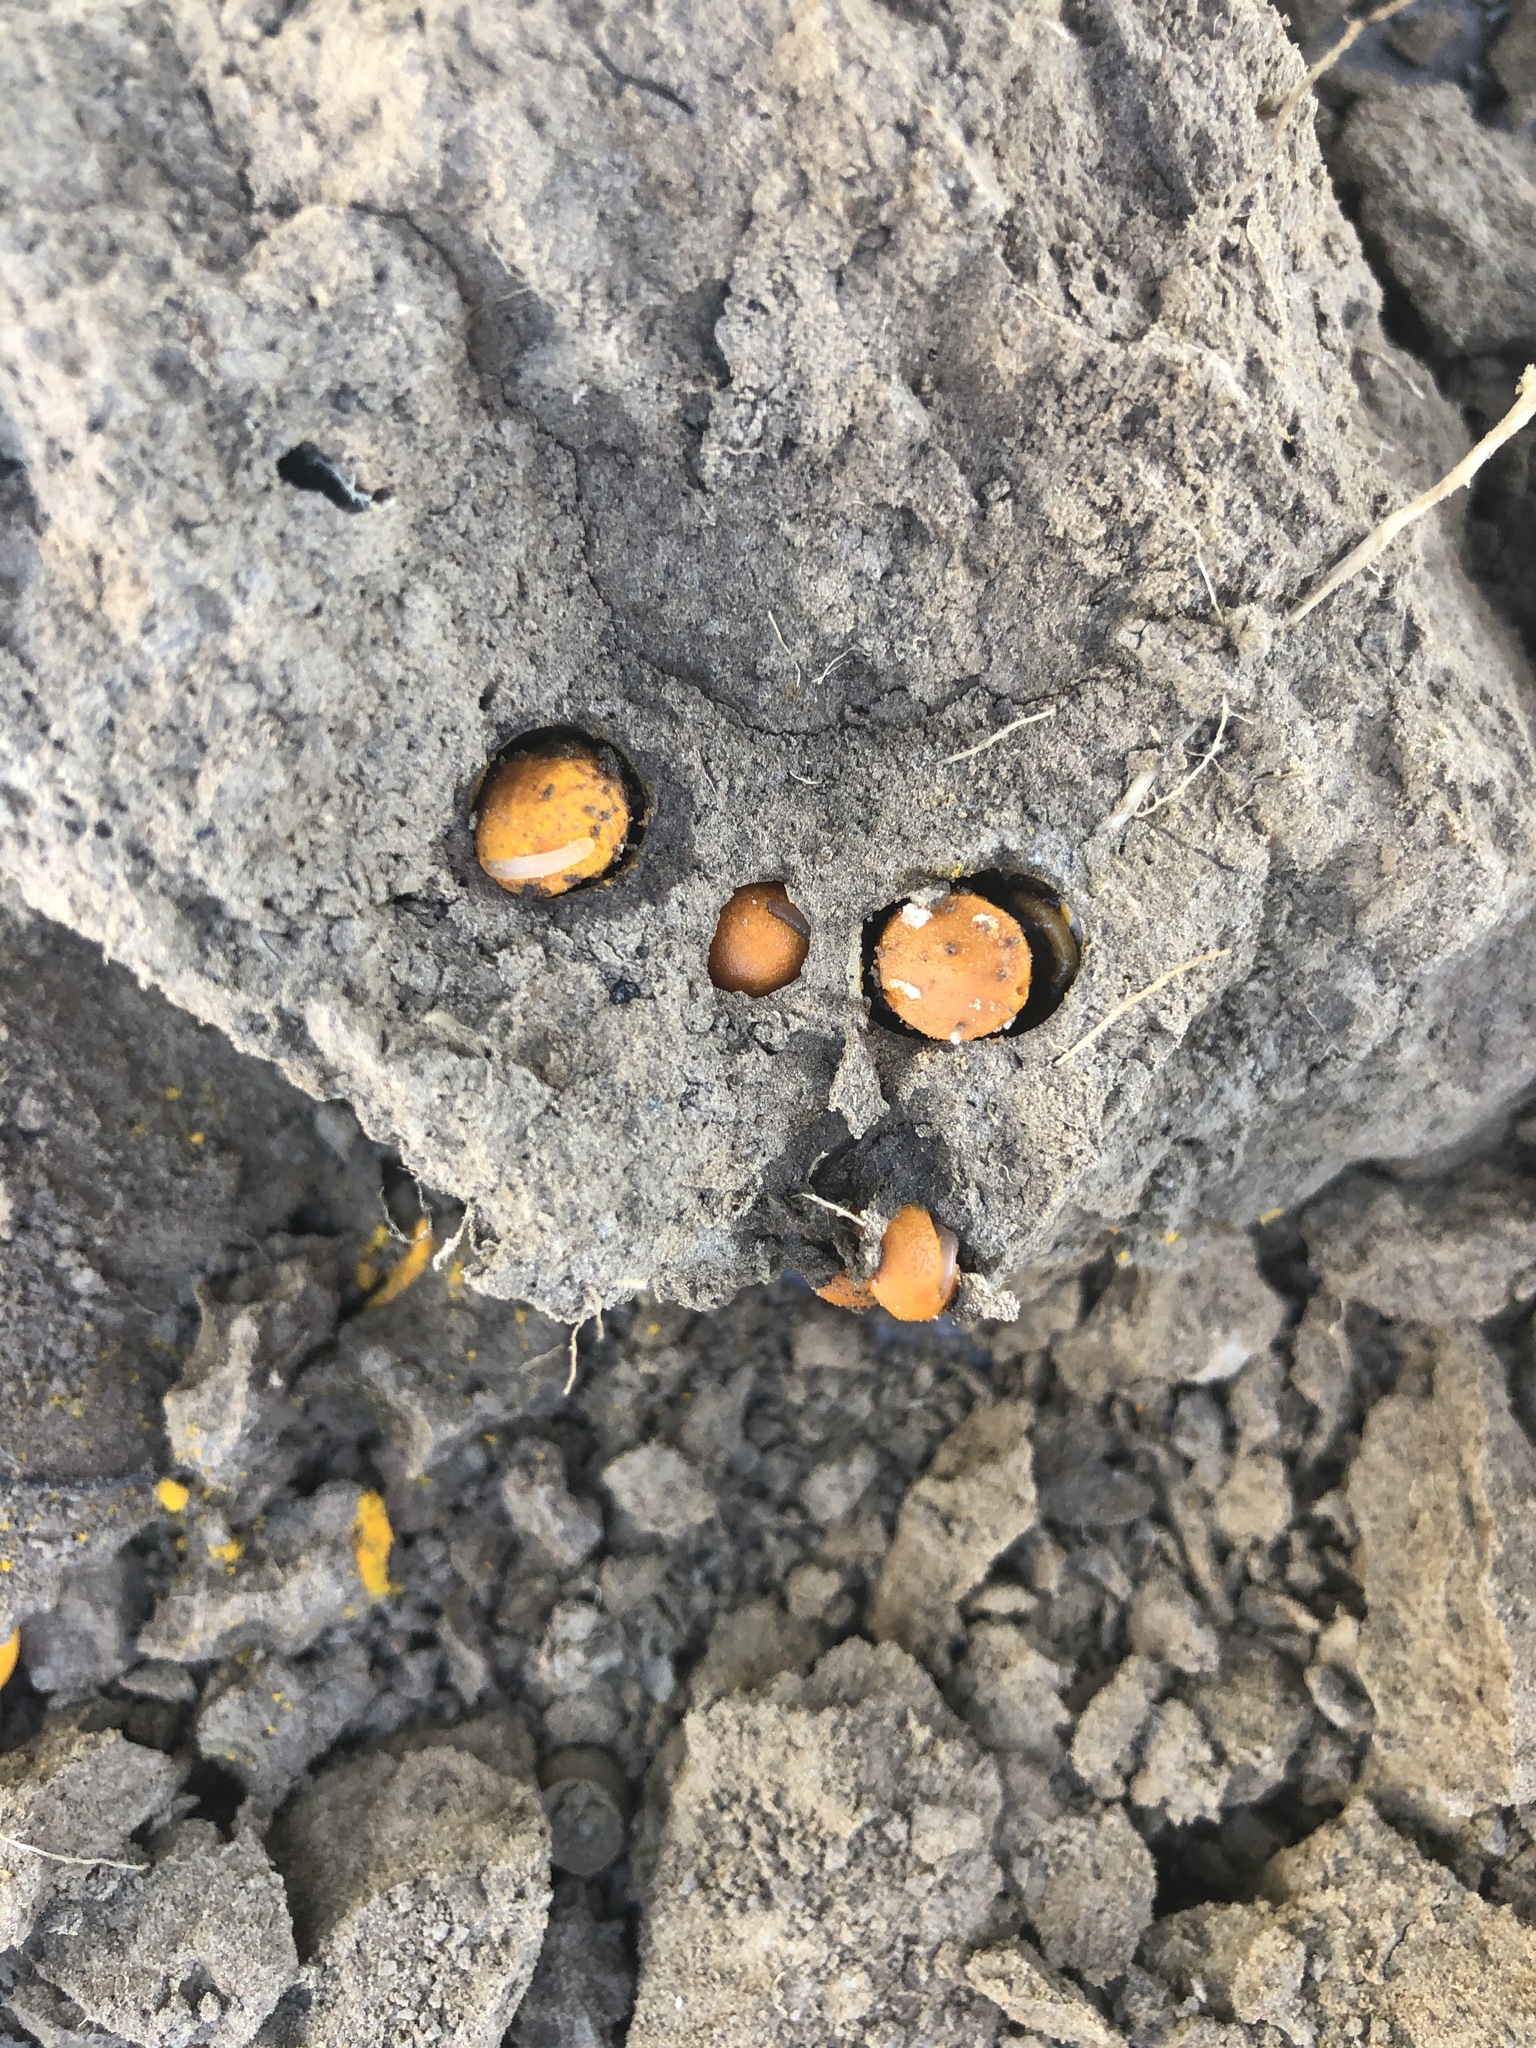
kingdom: Animalia
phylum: Arthropoda
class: Insecta
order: Hymenoptera
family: Apidae
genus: Diadasia
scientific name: Diadasia enavata
